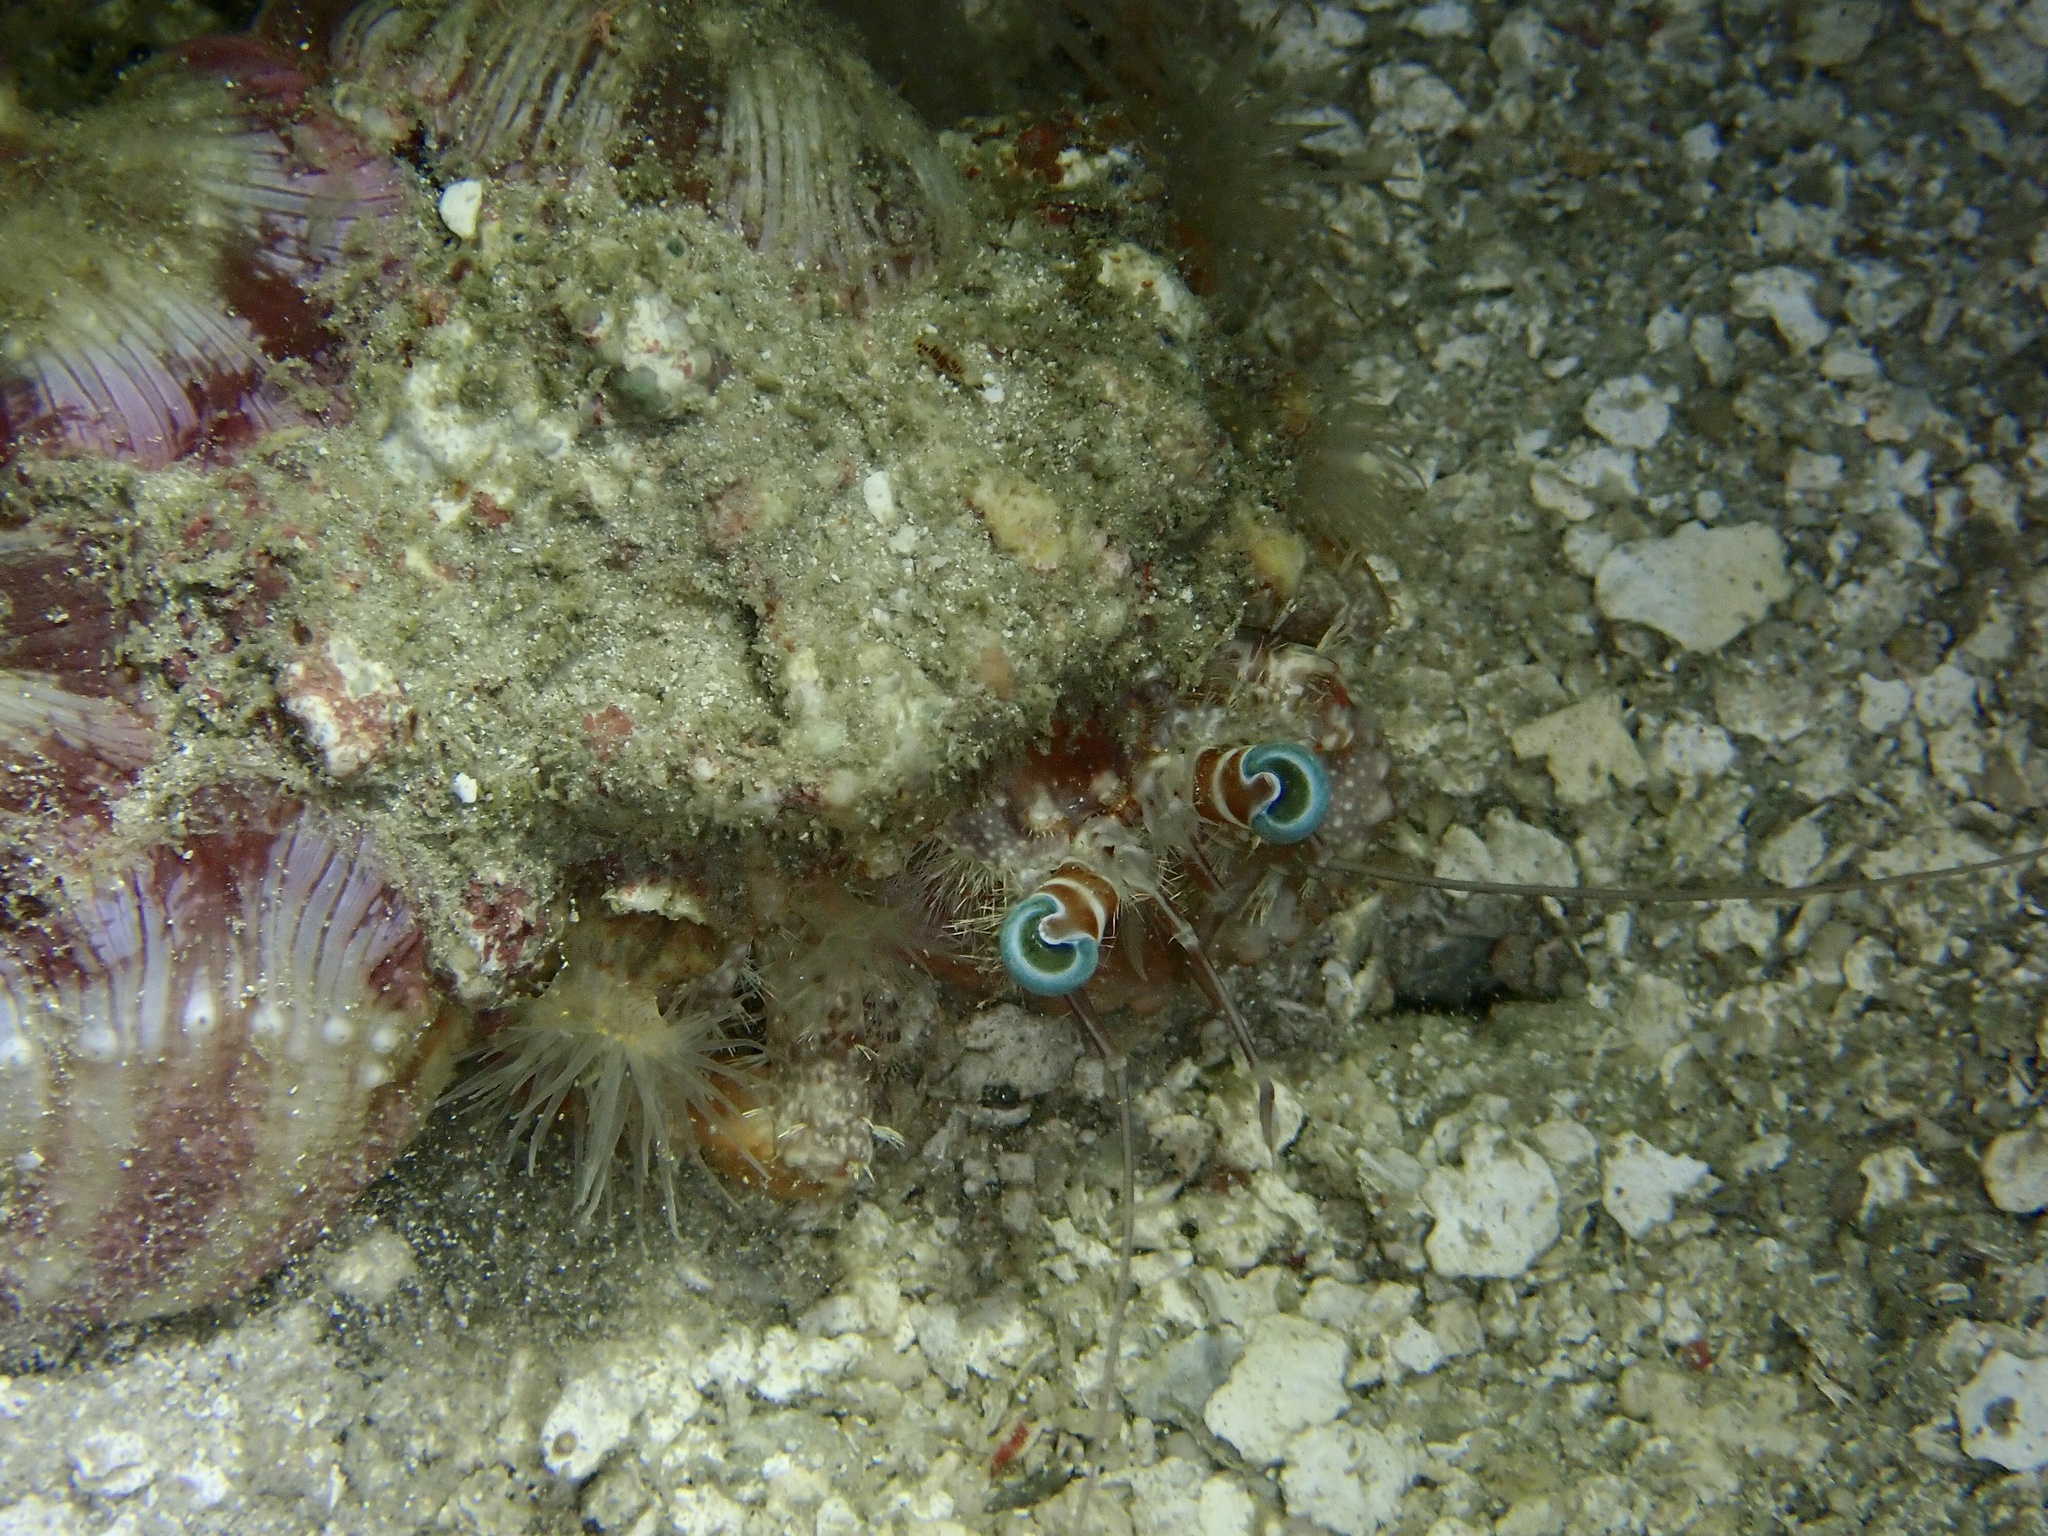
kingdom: Animalia
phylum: Arthropoda
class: Malacostraca
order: Decapoda
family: Diogenidae
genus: Dardanus
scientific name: Dardanus gemmatus
